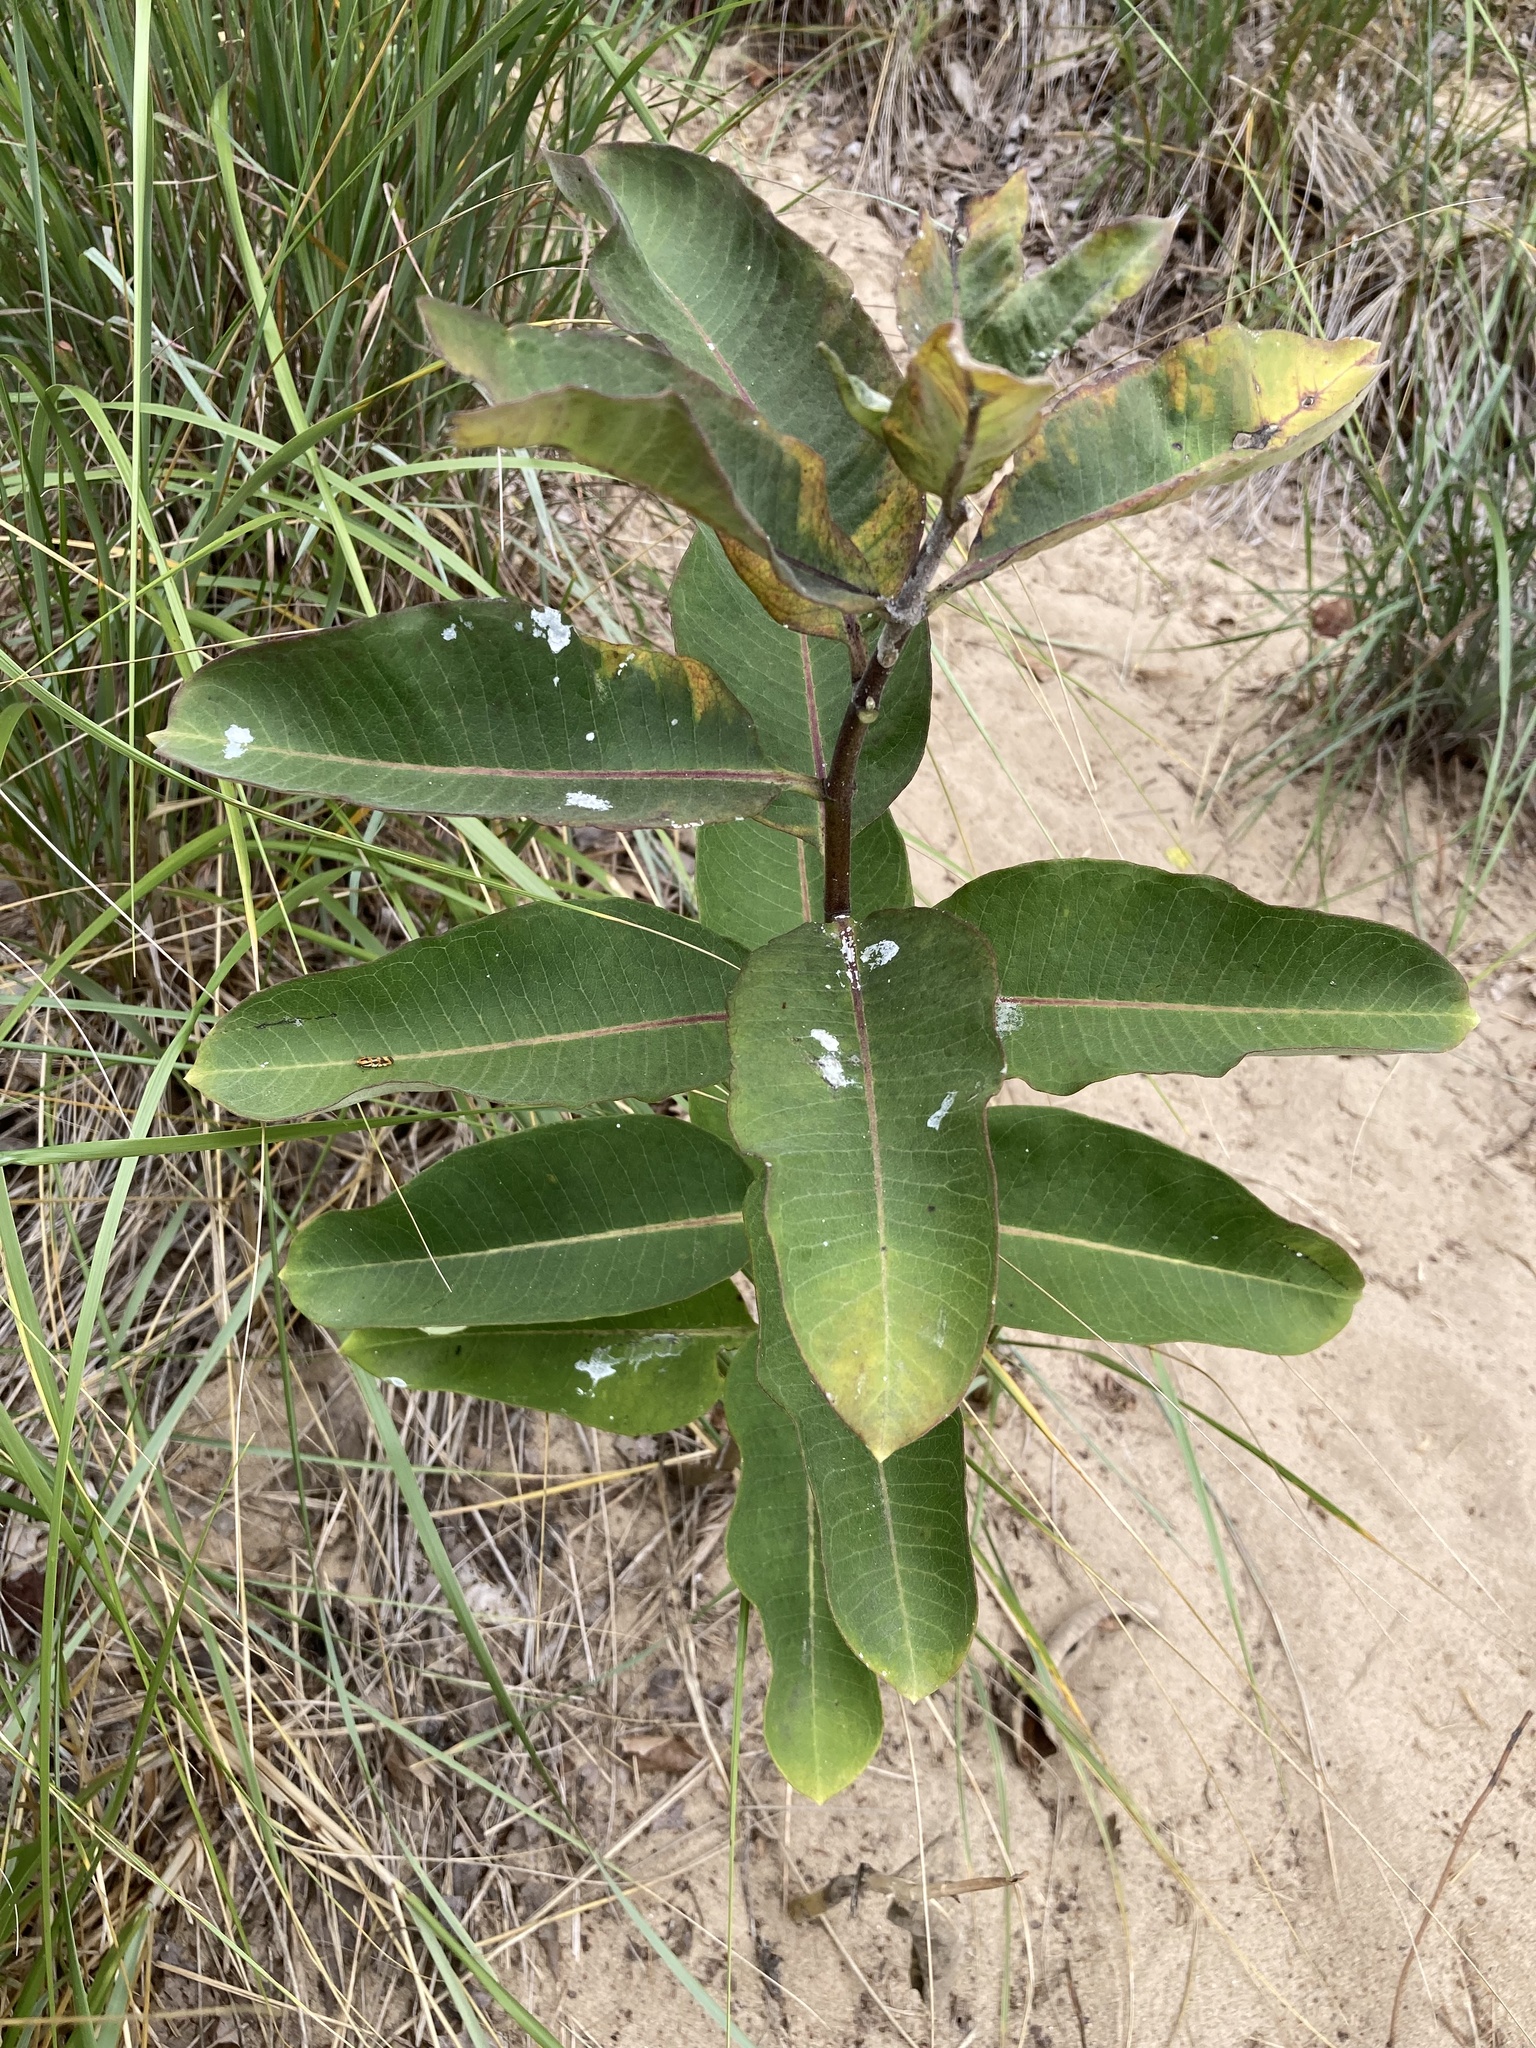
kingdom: Plantae
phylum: Tracheophyta
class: Magnoliopsida
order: Gentianales
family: Apocynaceae
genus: Asclepias
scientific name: Asclepias syriaca
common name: Common milkweed
